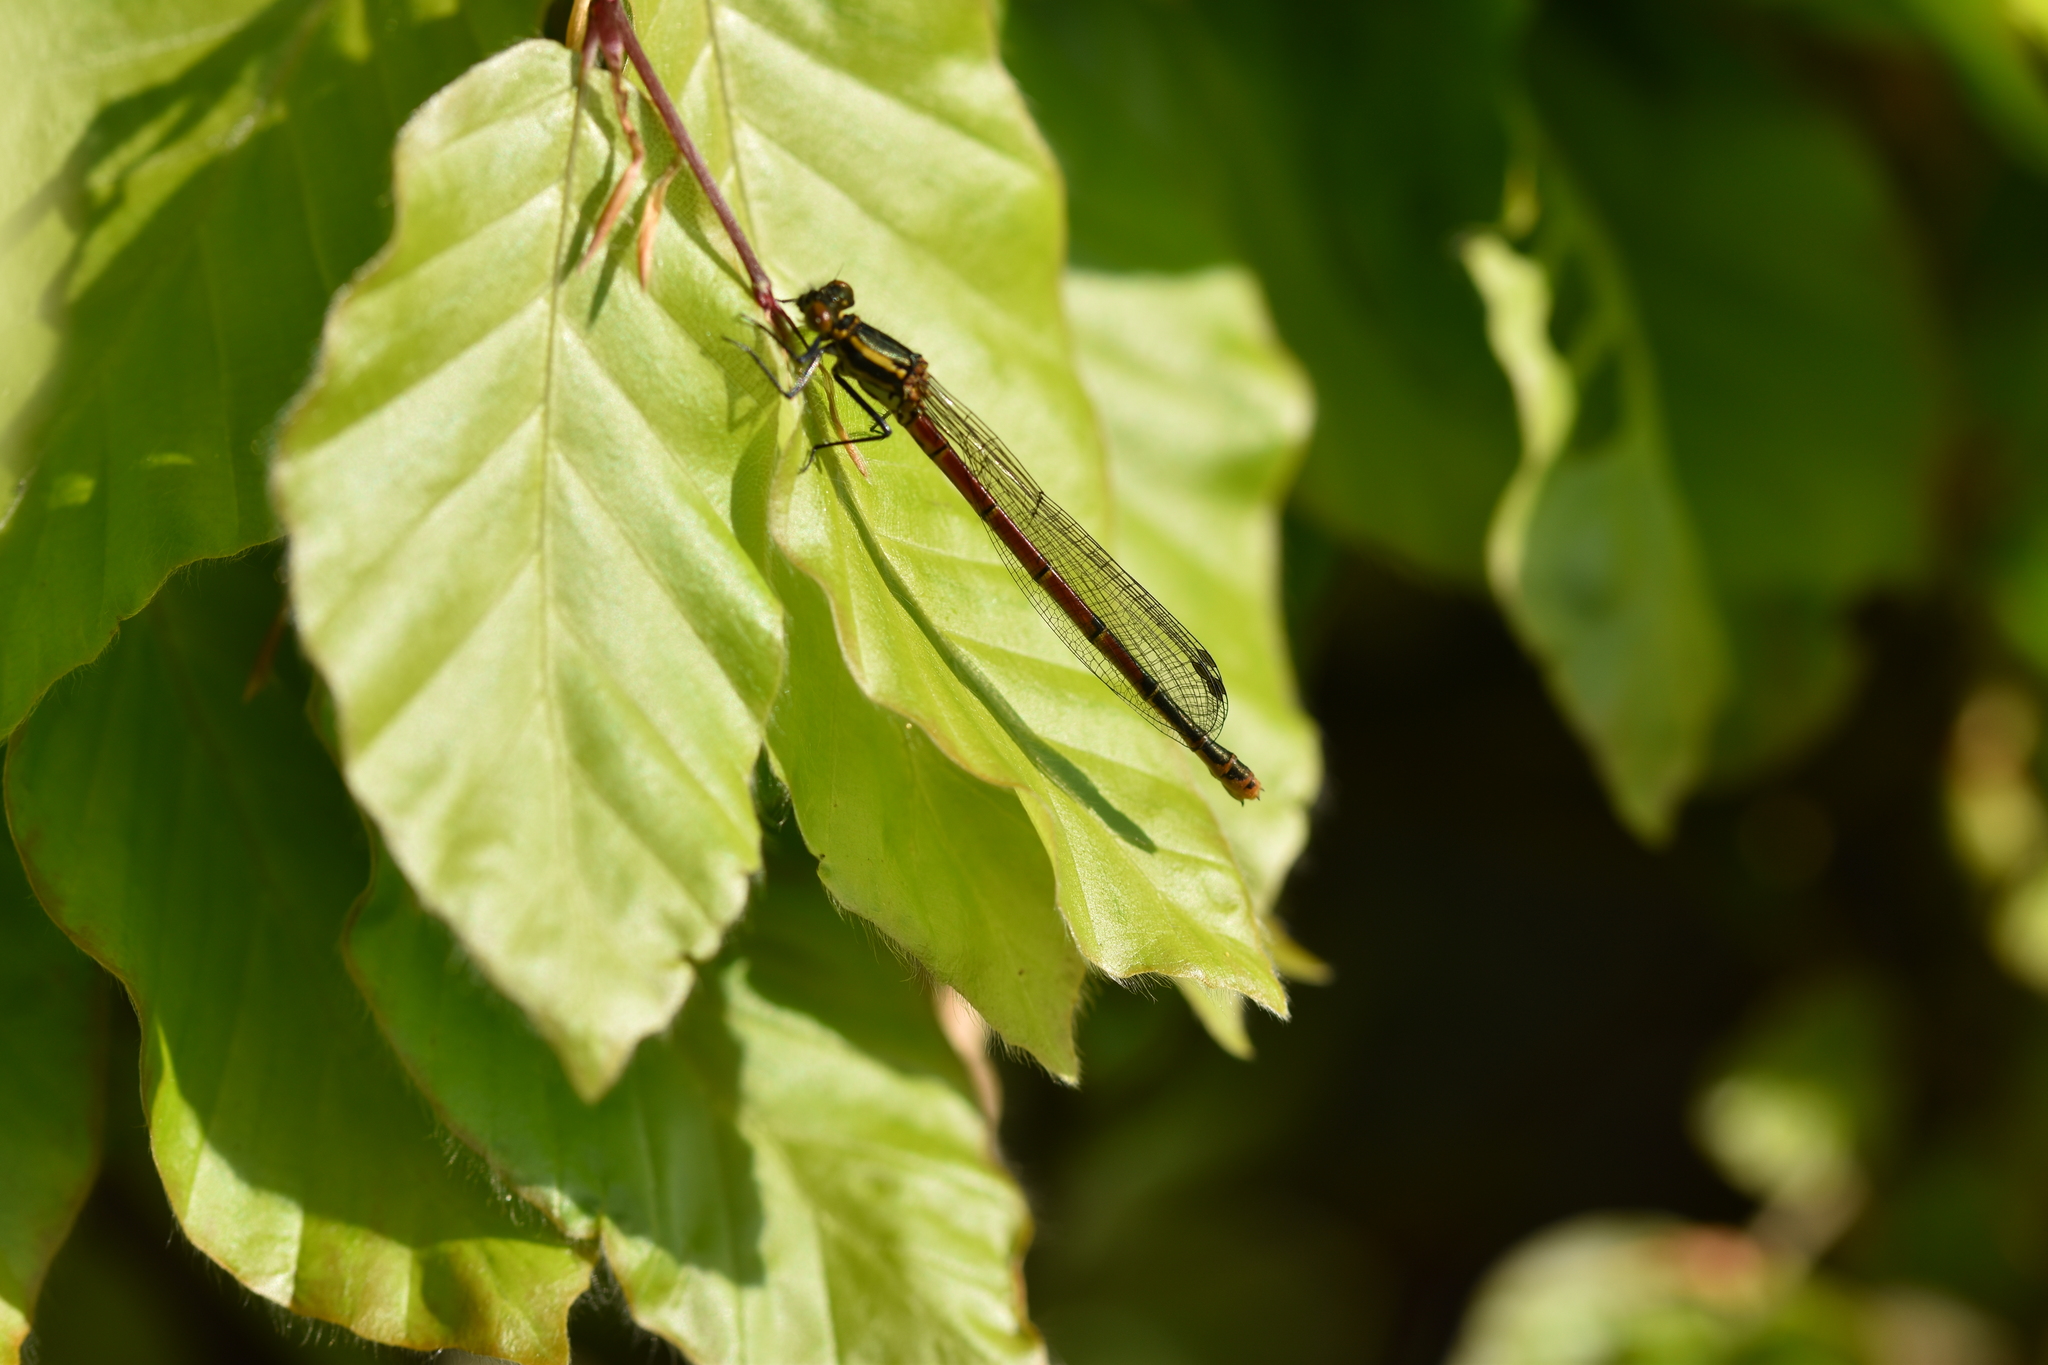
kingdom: Animalia
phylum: Arthropoda
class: Insecta
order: Odonata
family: Coenagrionidae
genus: Pyrrhosoma
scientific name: Pyrrhosoma nymphula
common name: Large red damsel
